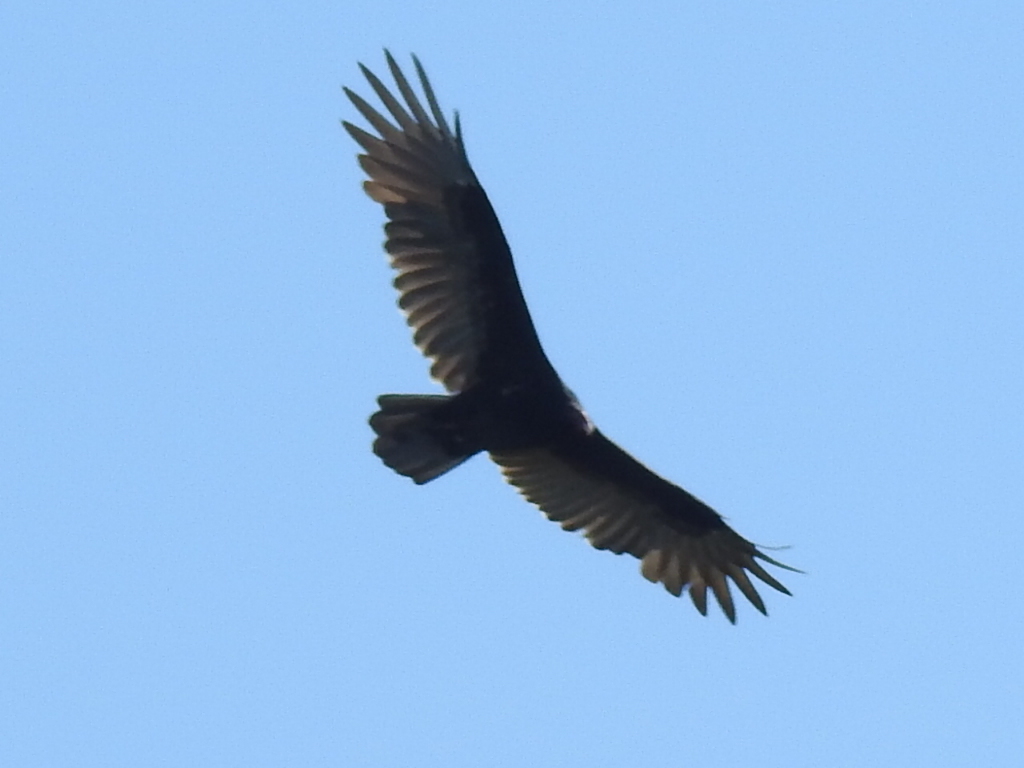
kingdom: Animalia
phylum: Chordata
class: Aves
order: Accipitriformes
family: Cathartidae
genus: Cathartes
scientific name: Cathartes aura
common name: Turkey vulture
